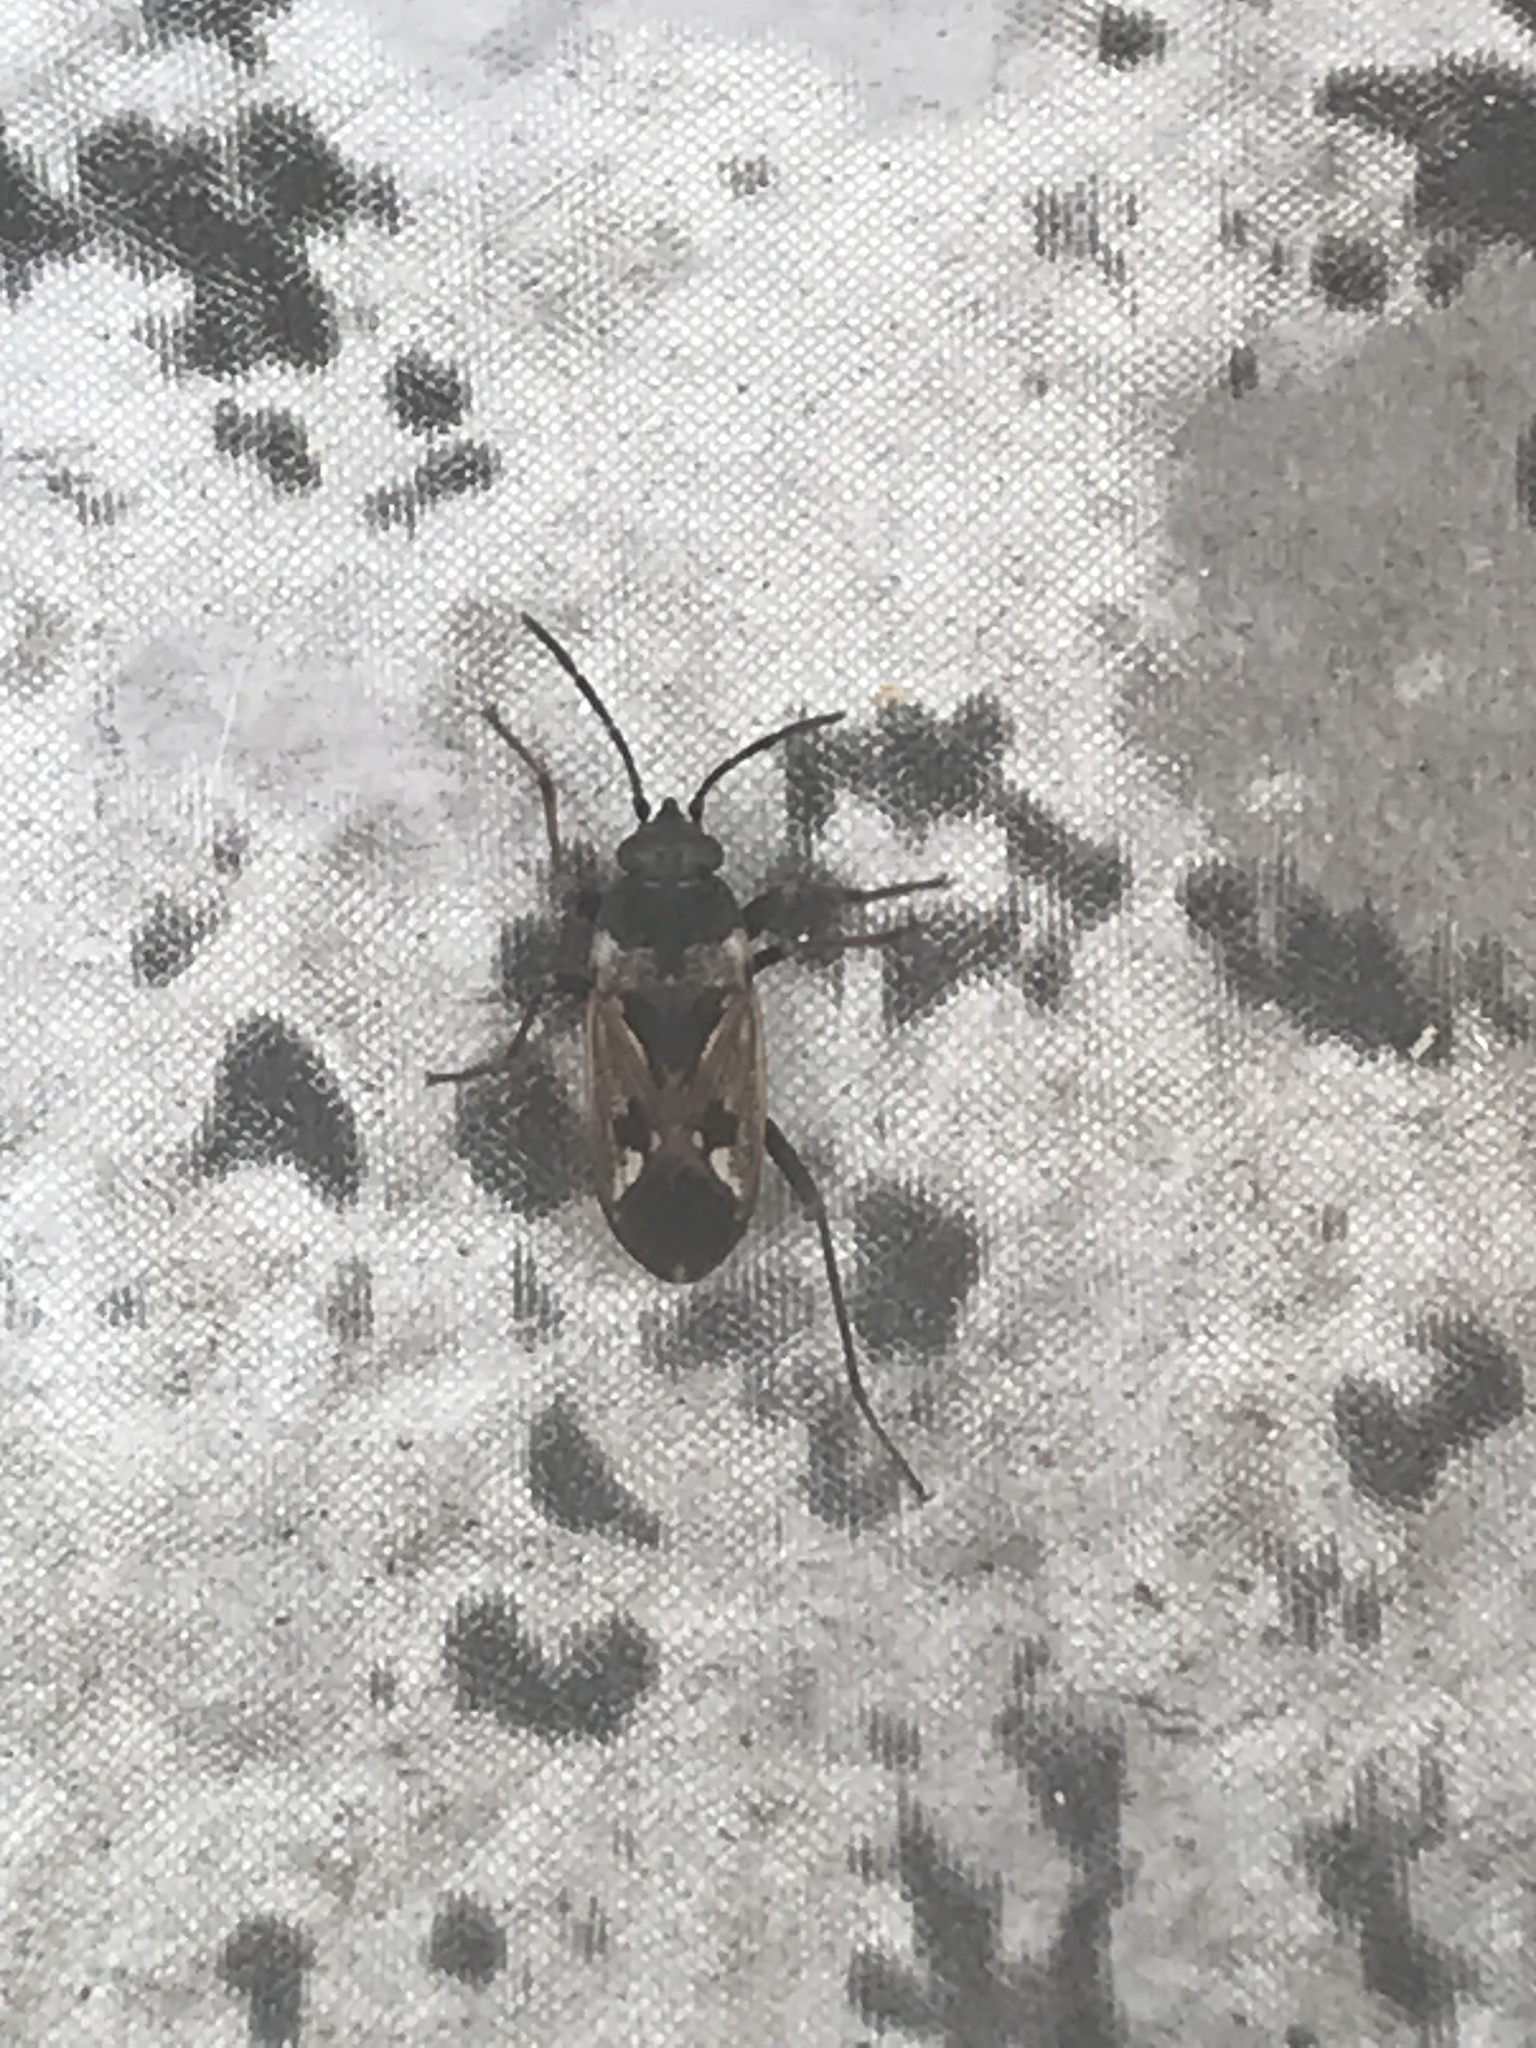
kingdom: Animalia
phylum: Arthropoda
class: Insecta
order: Hemiptera
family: Rhyparochromidae
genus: Rhyparochromus
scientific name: Rhyparochromus vulgaris
